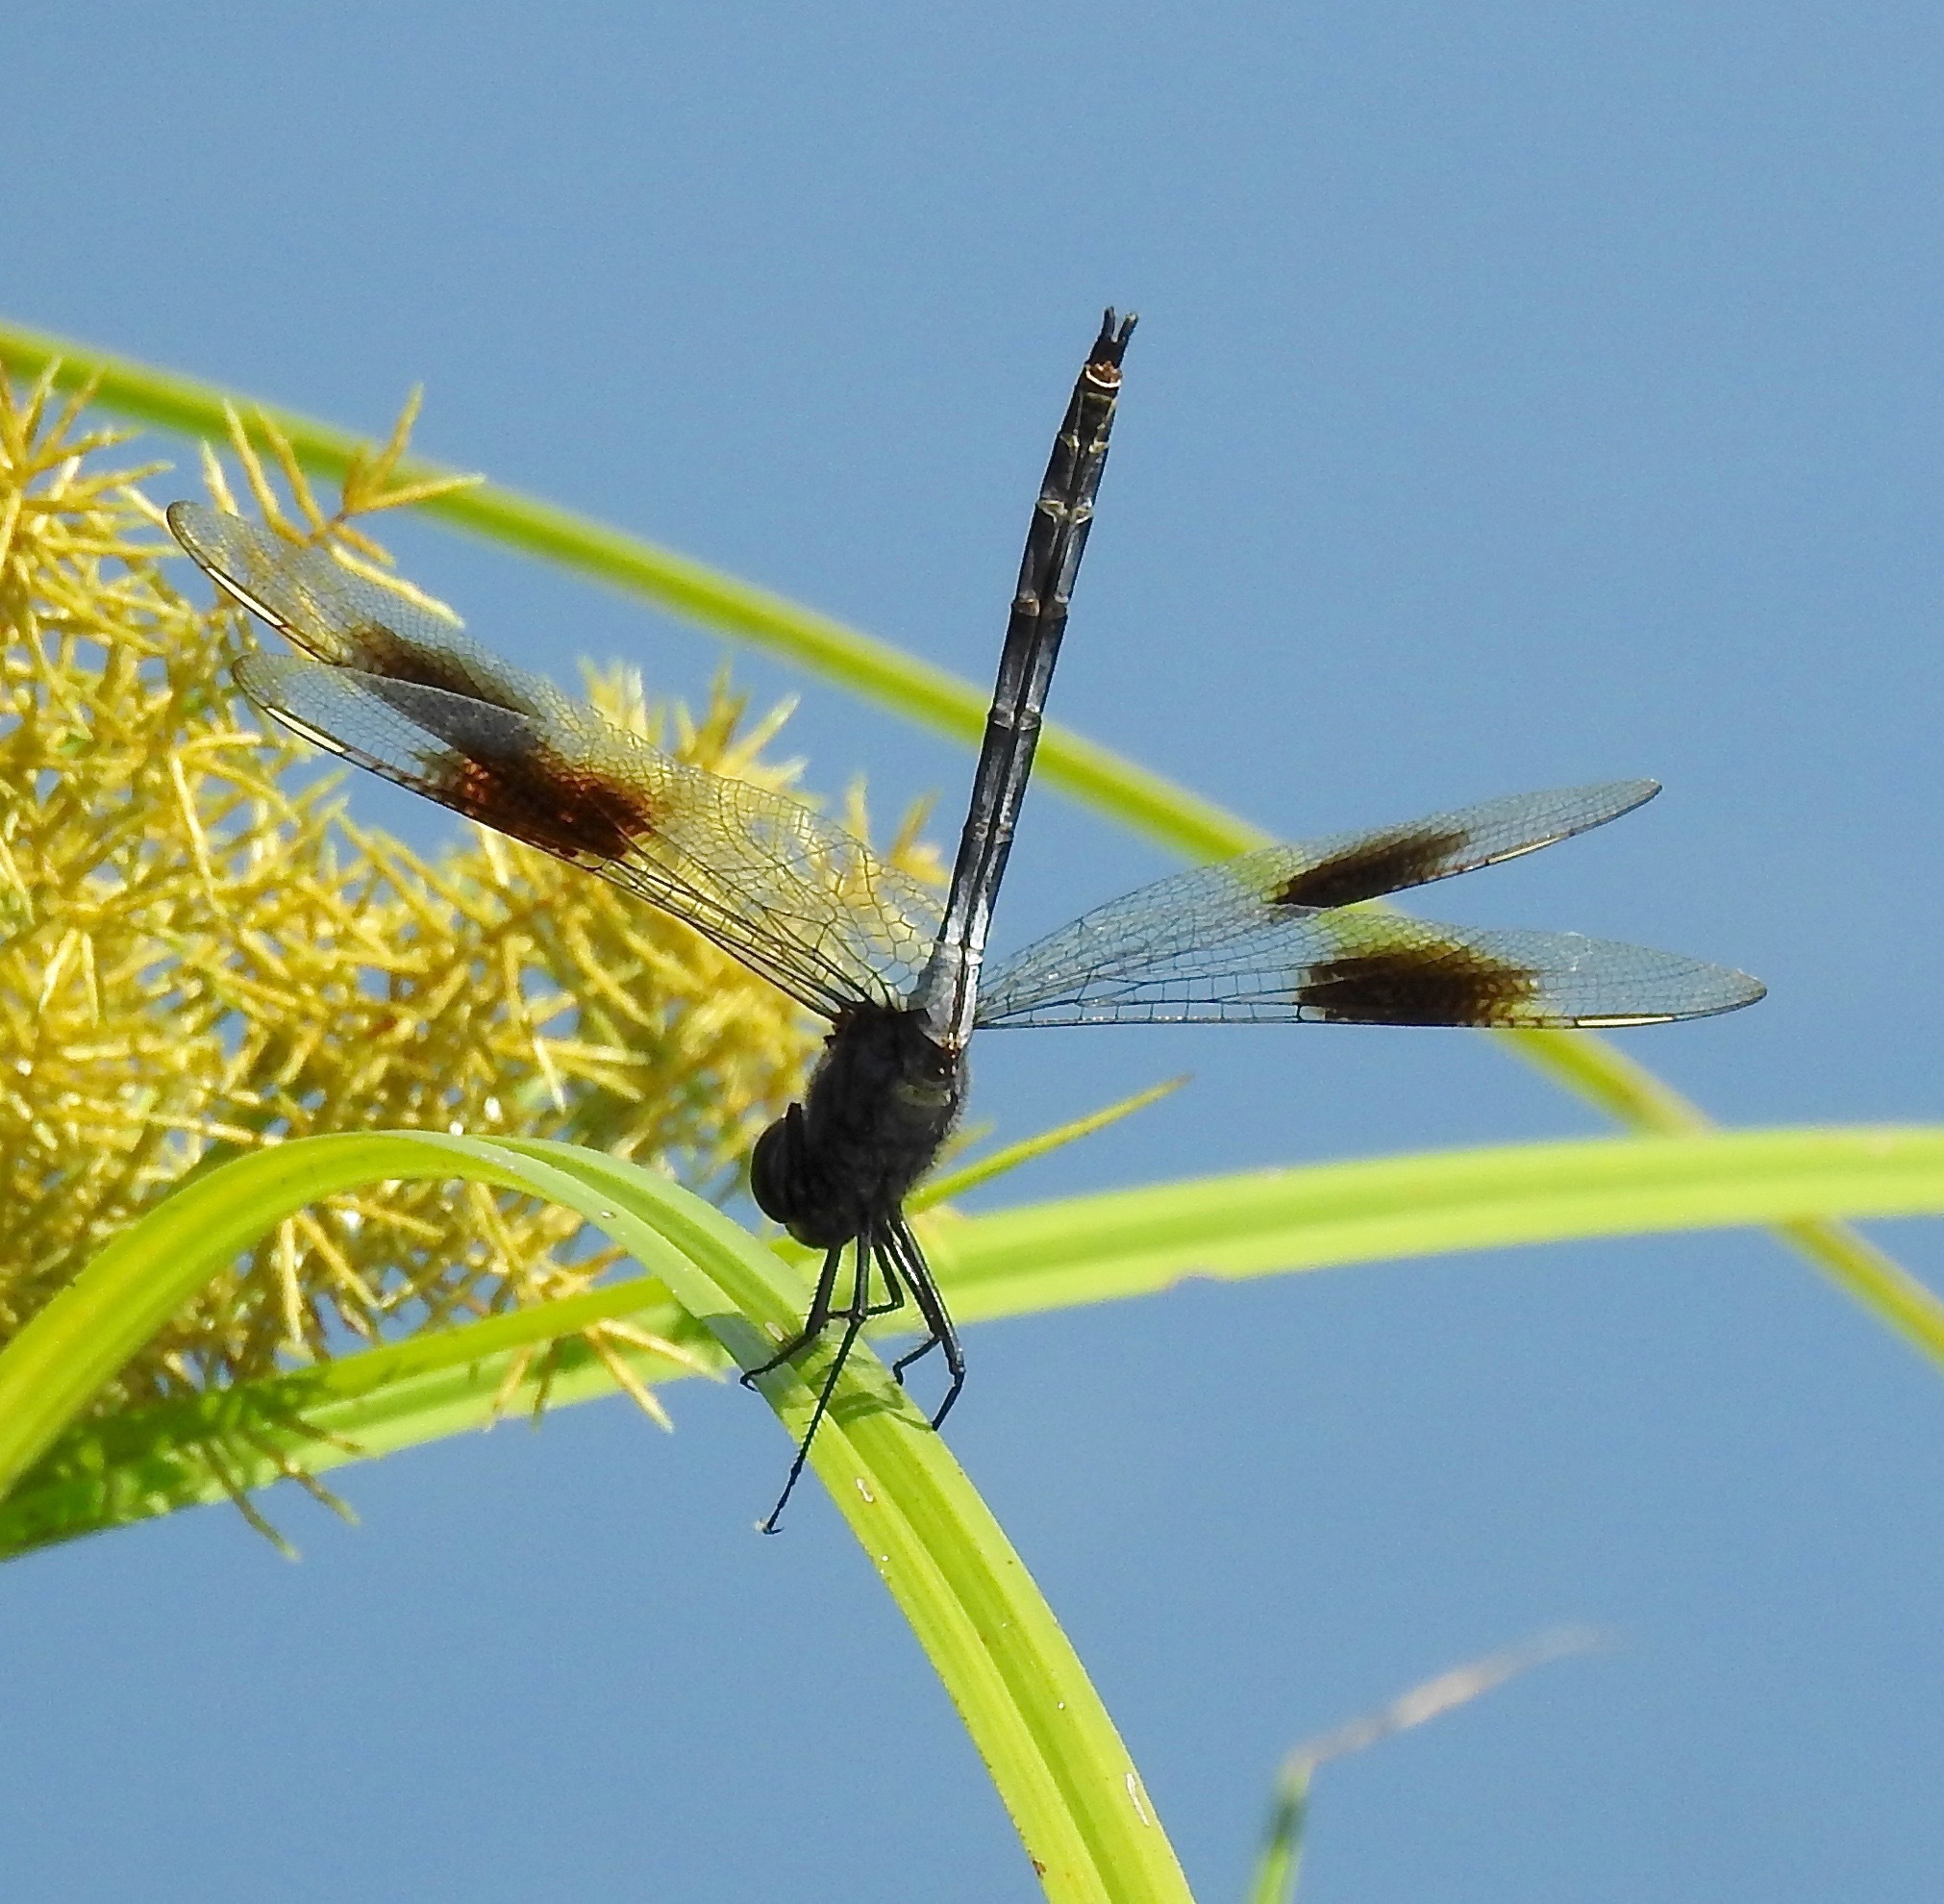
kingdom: Animalia
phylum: Arthropoda
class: Insecta
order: Odonata
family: Libellulidae
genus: Brachymesia
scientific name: Brachymesia gravida
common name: Four-spotted pennant
